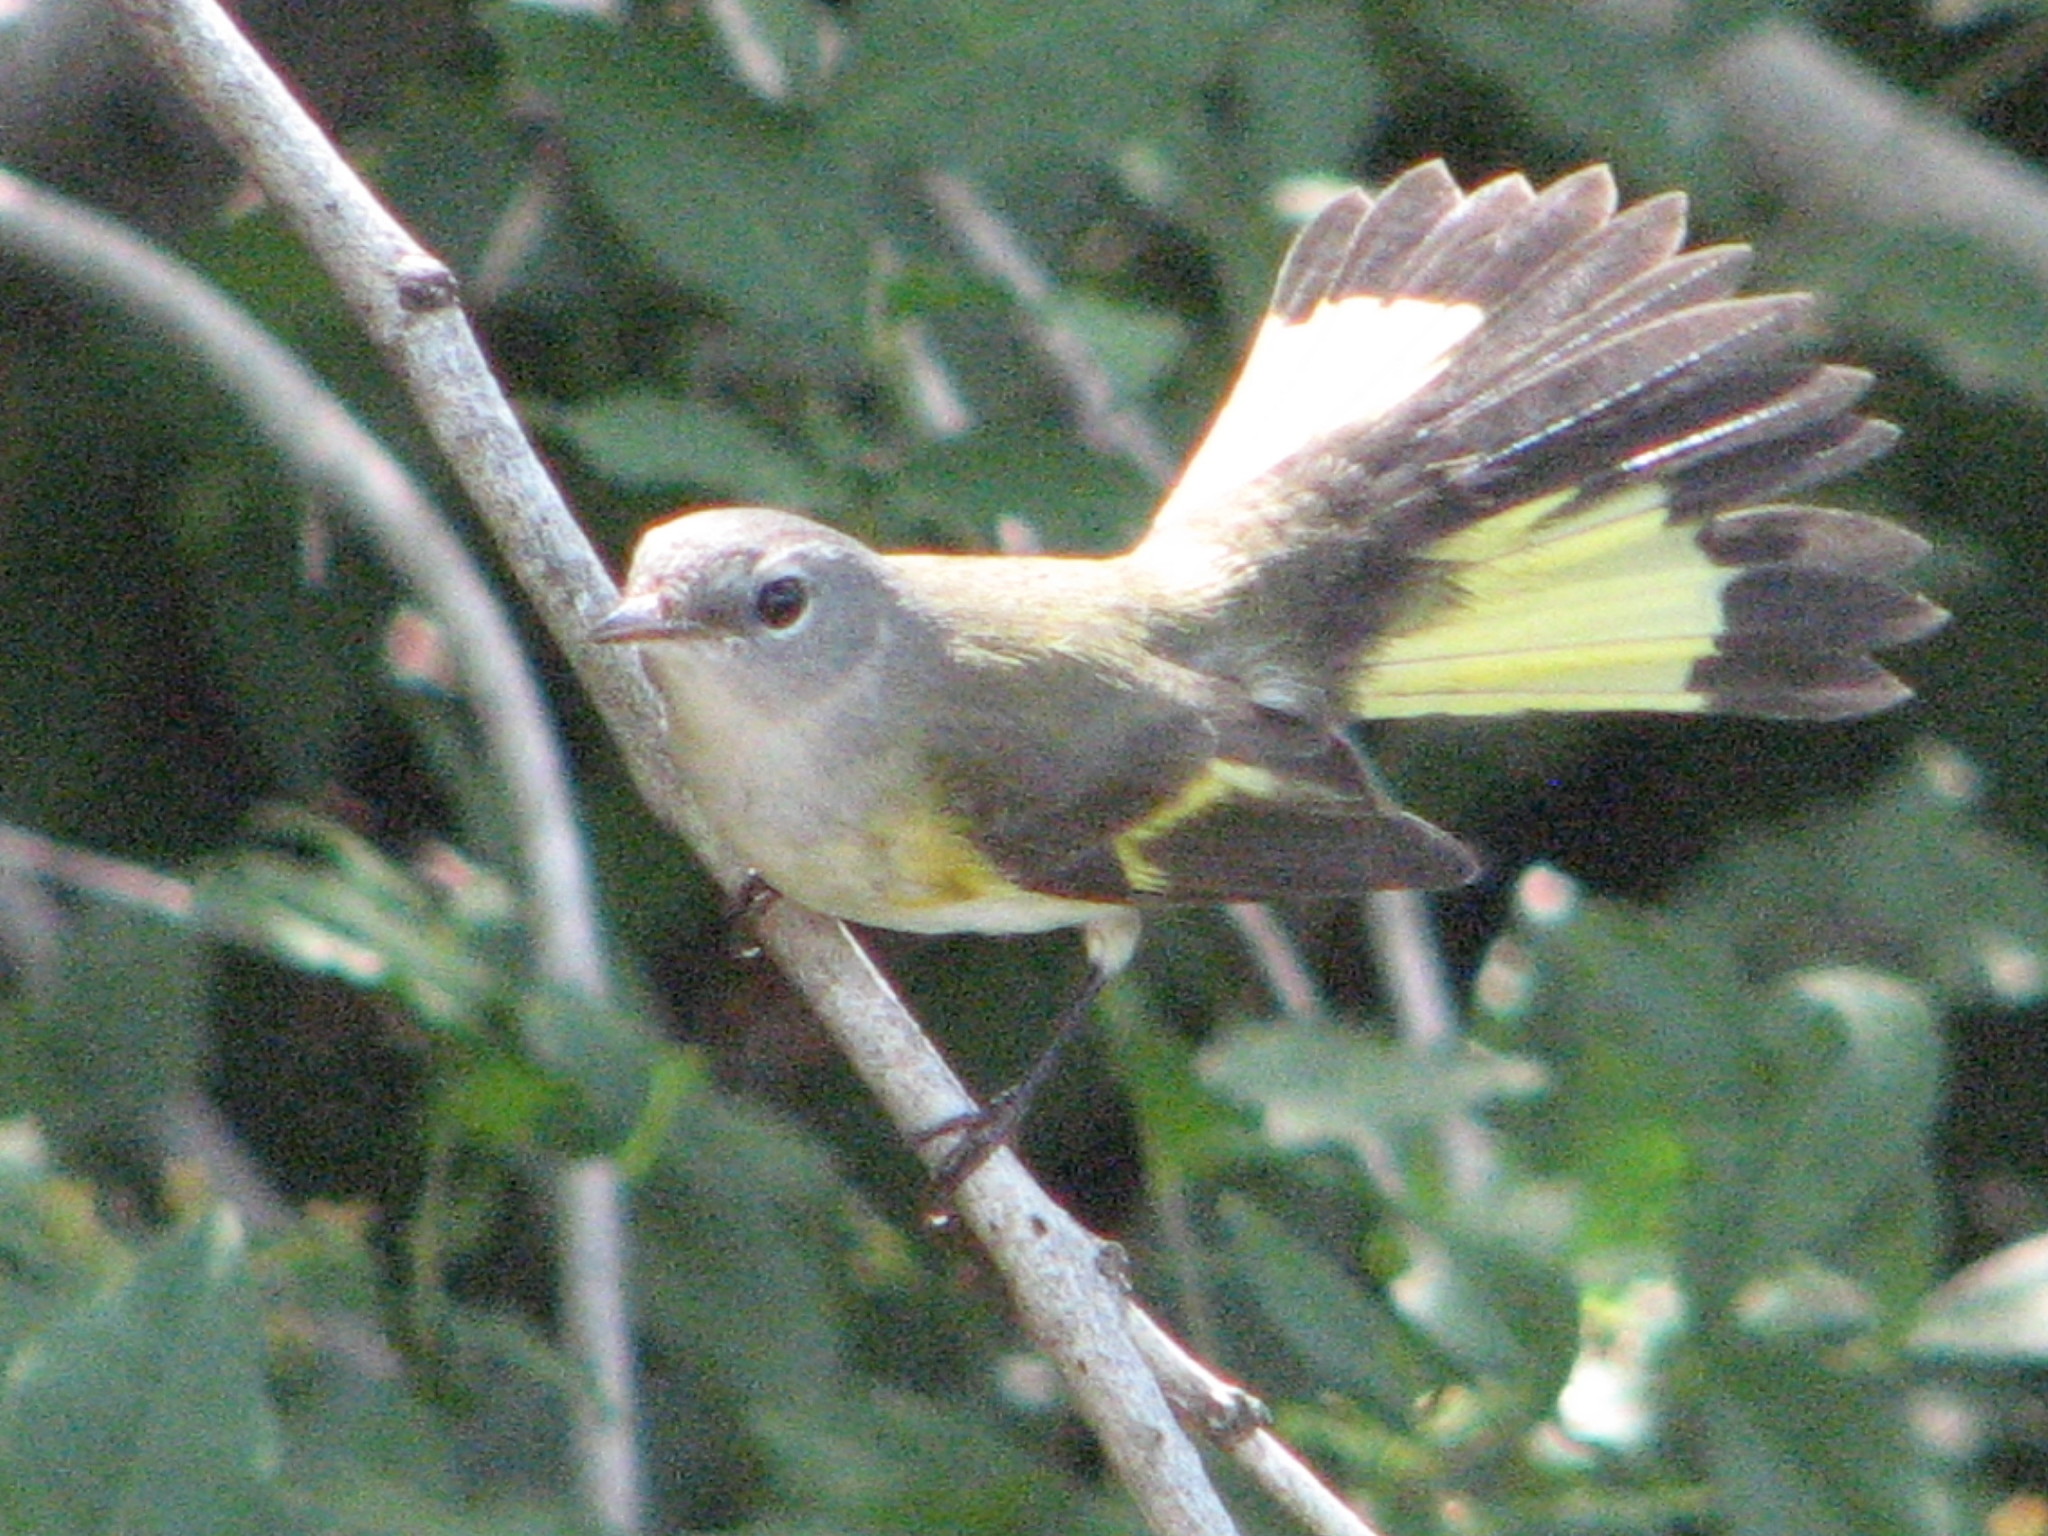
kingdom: Animalia
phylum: Chordata
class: Aves
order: Passeriformes
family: Parulidae
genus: Setophaga
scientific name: Setophaga ruticilla
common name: American redstart
